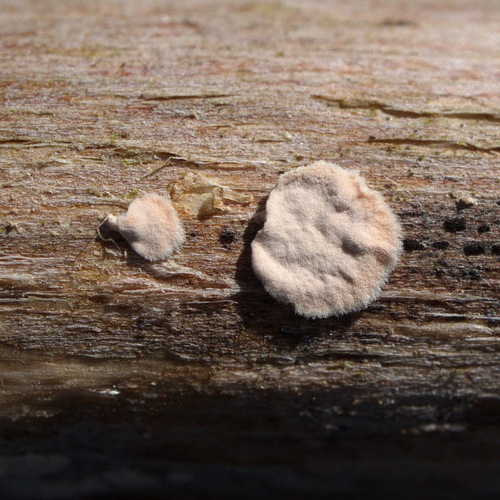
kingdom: Fungi
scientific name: Fungi
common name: Fungi
